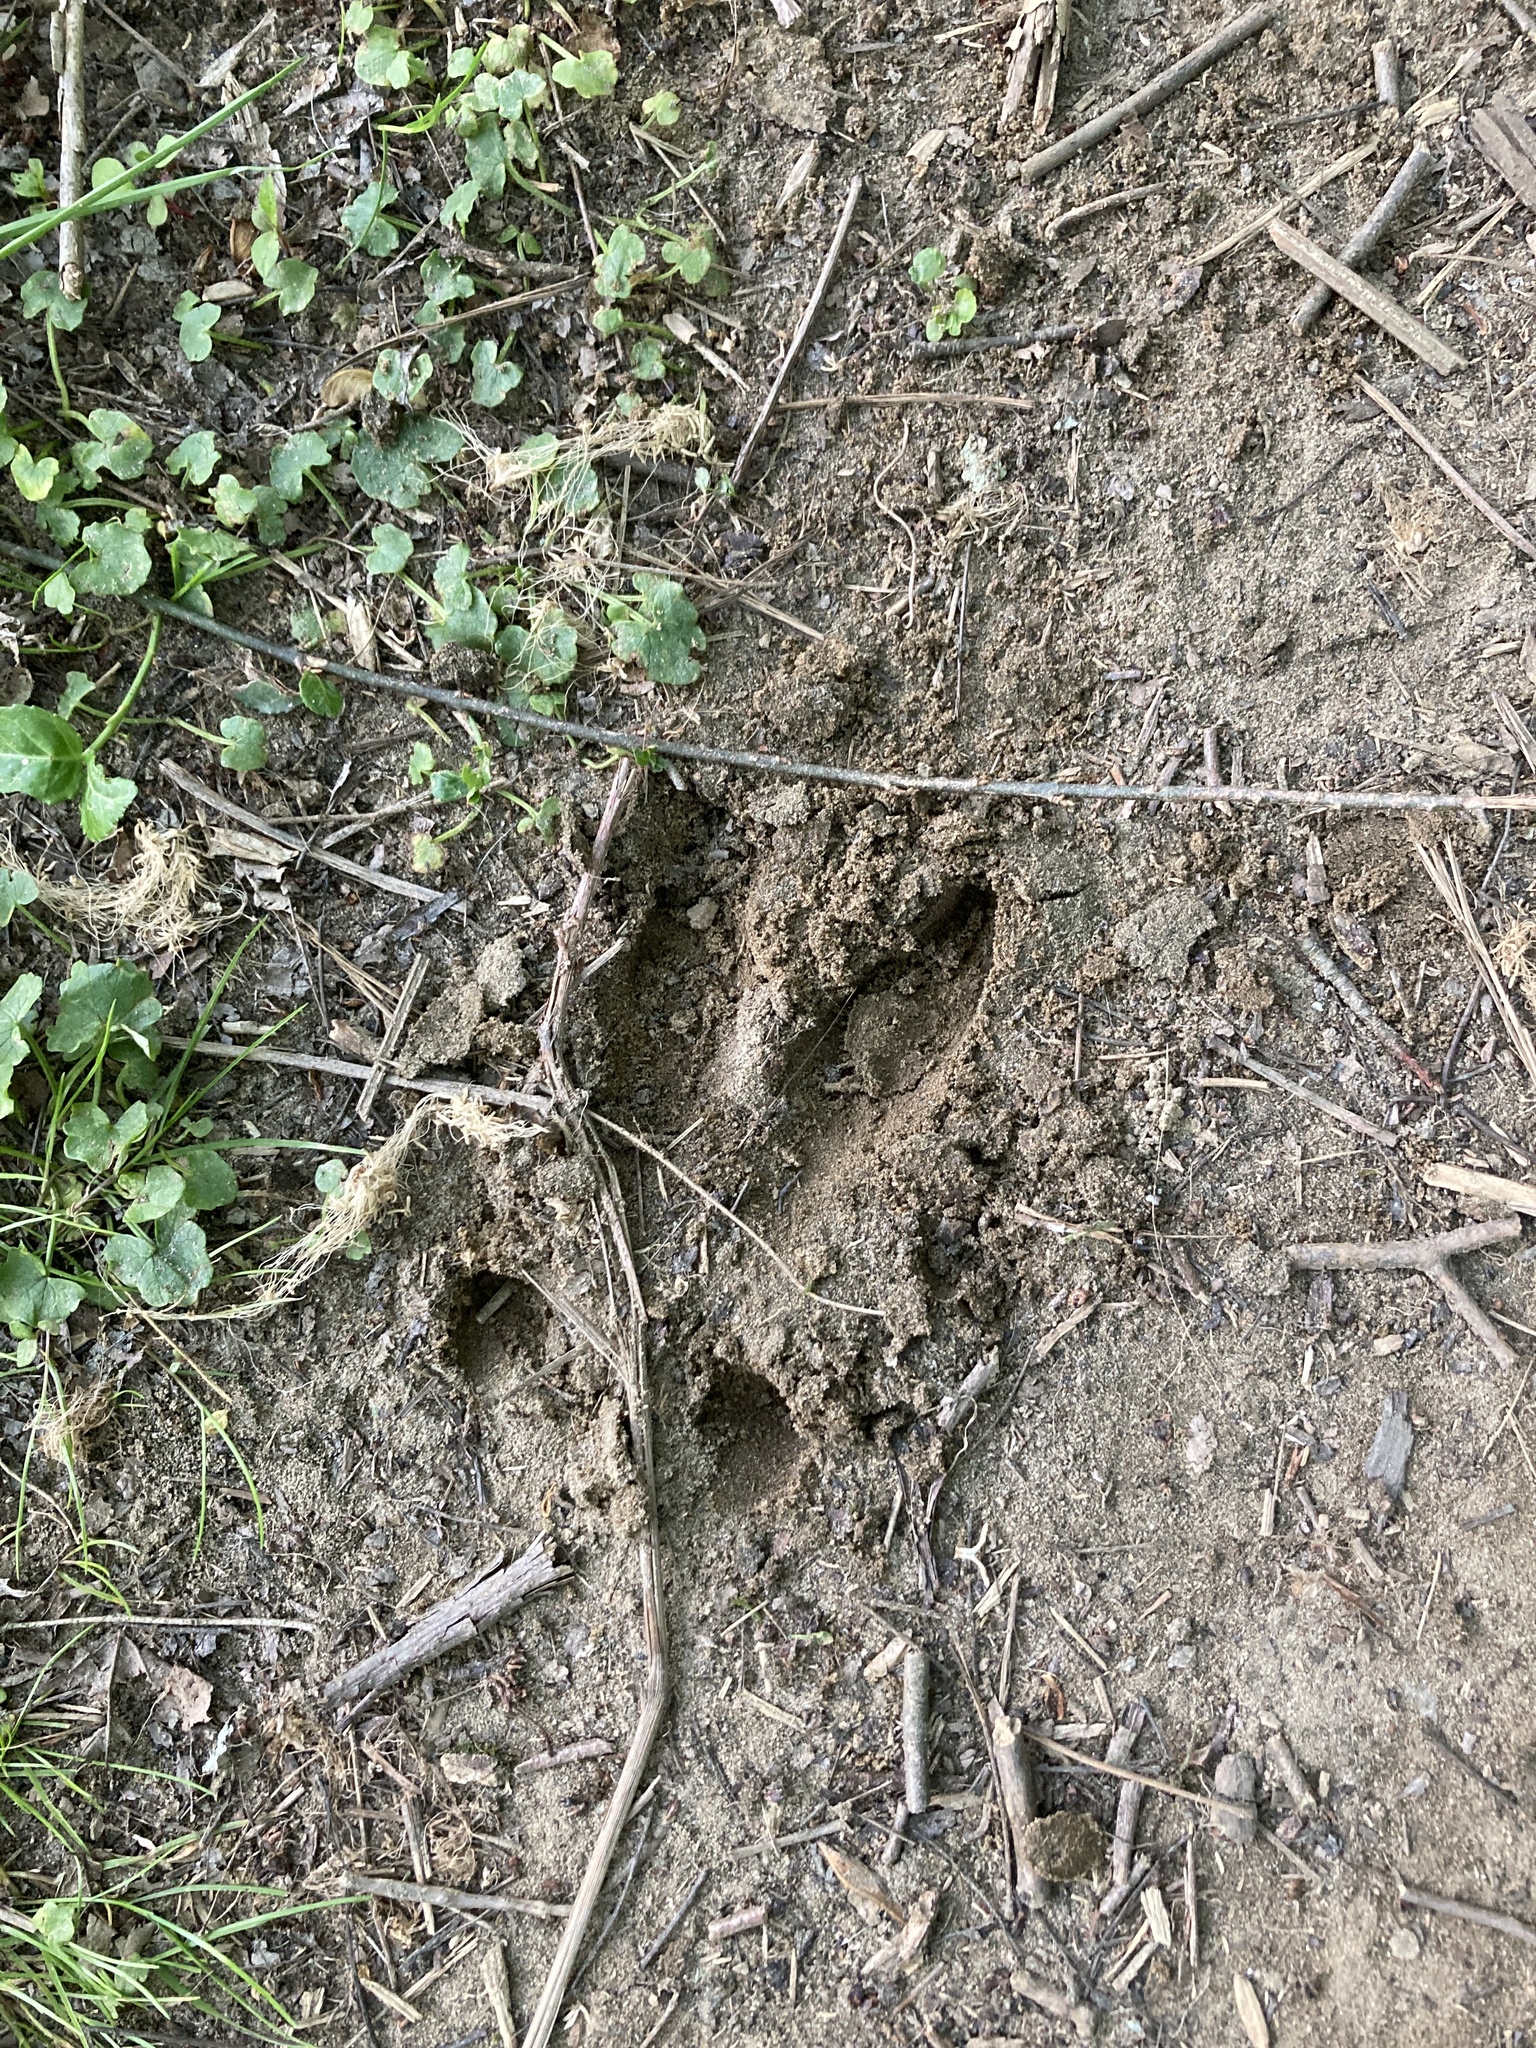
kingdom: Animalia
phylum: Chordata
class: Mammalia
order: Artiodactyla
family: Cervidae
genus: Odocoileus
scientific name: Odocoileus virginianus
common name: White-tailed deer
